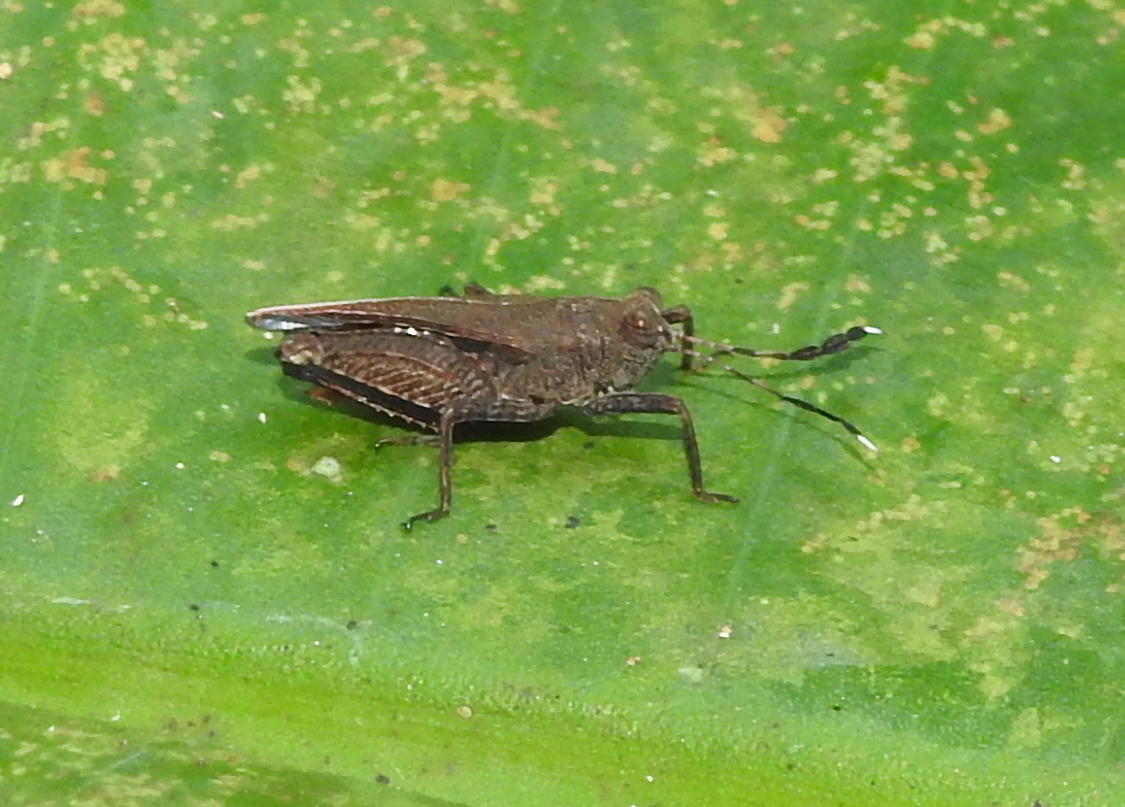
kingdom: Animalia
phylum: Arthropoda
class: Insecta
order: Orthoptera
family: Tetrigidae
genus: Phaesticus
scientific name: Phaesticus mellerborgi
